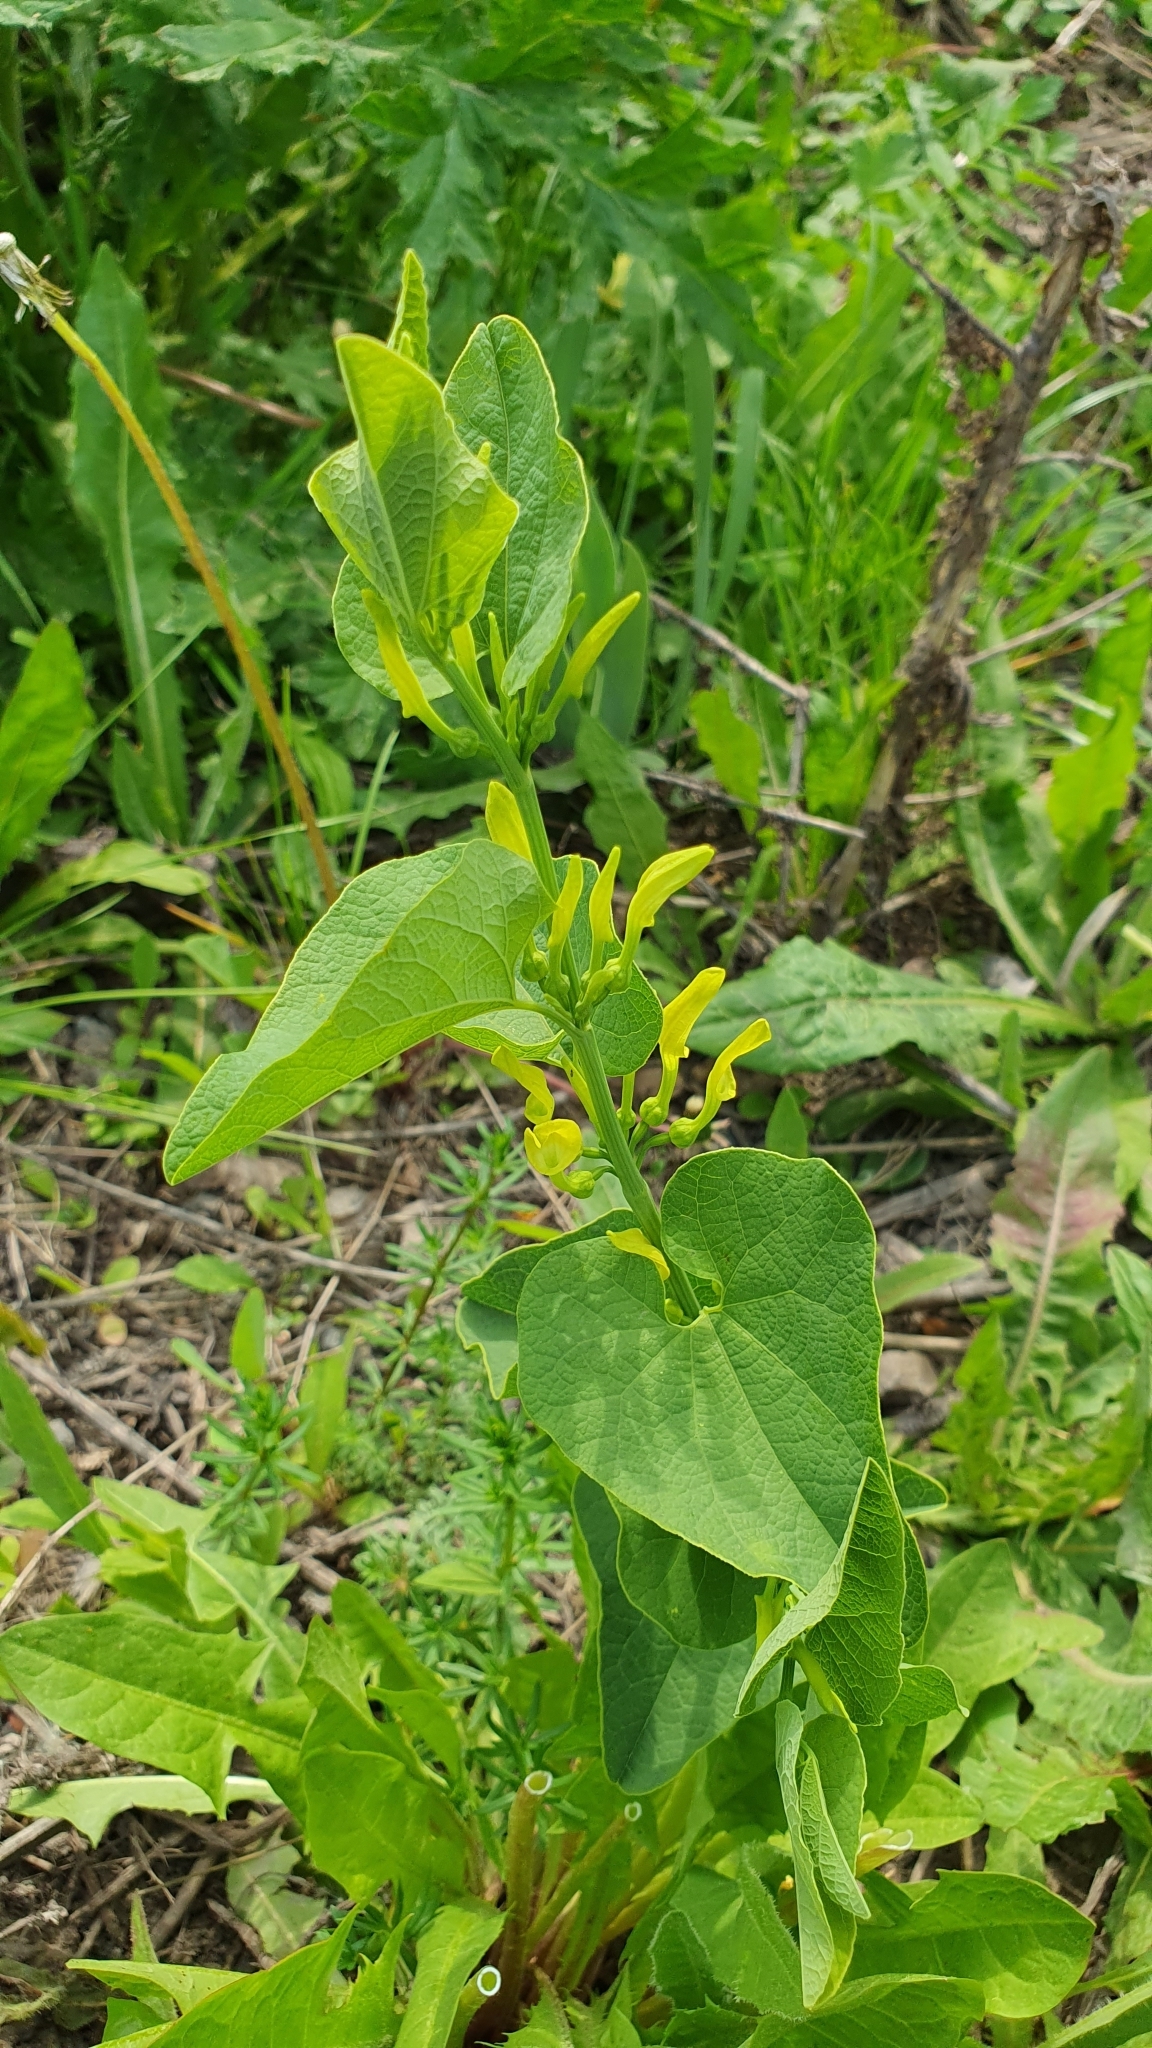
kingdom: Plantae
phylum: Tracheophyta
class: Magnoliopsida
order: Piperales
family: Aristolochiaceae
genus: Aristolochia
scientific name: Aristolochia clematitis
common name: Birthwort
